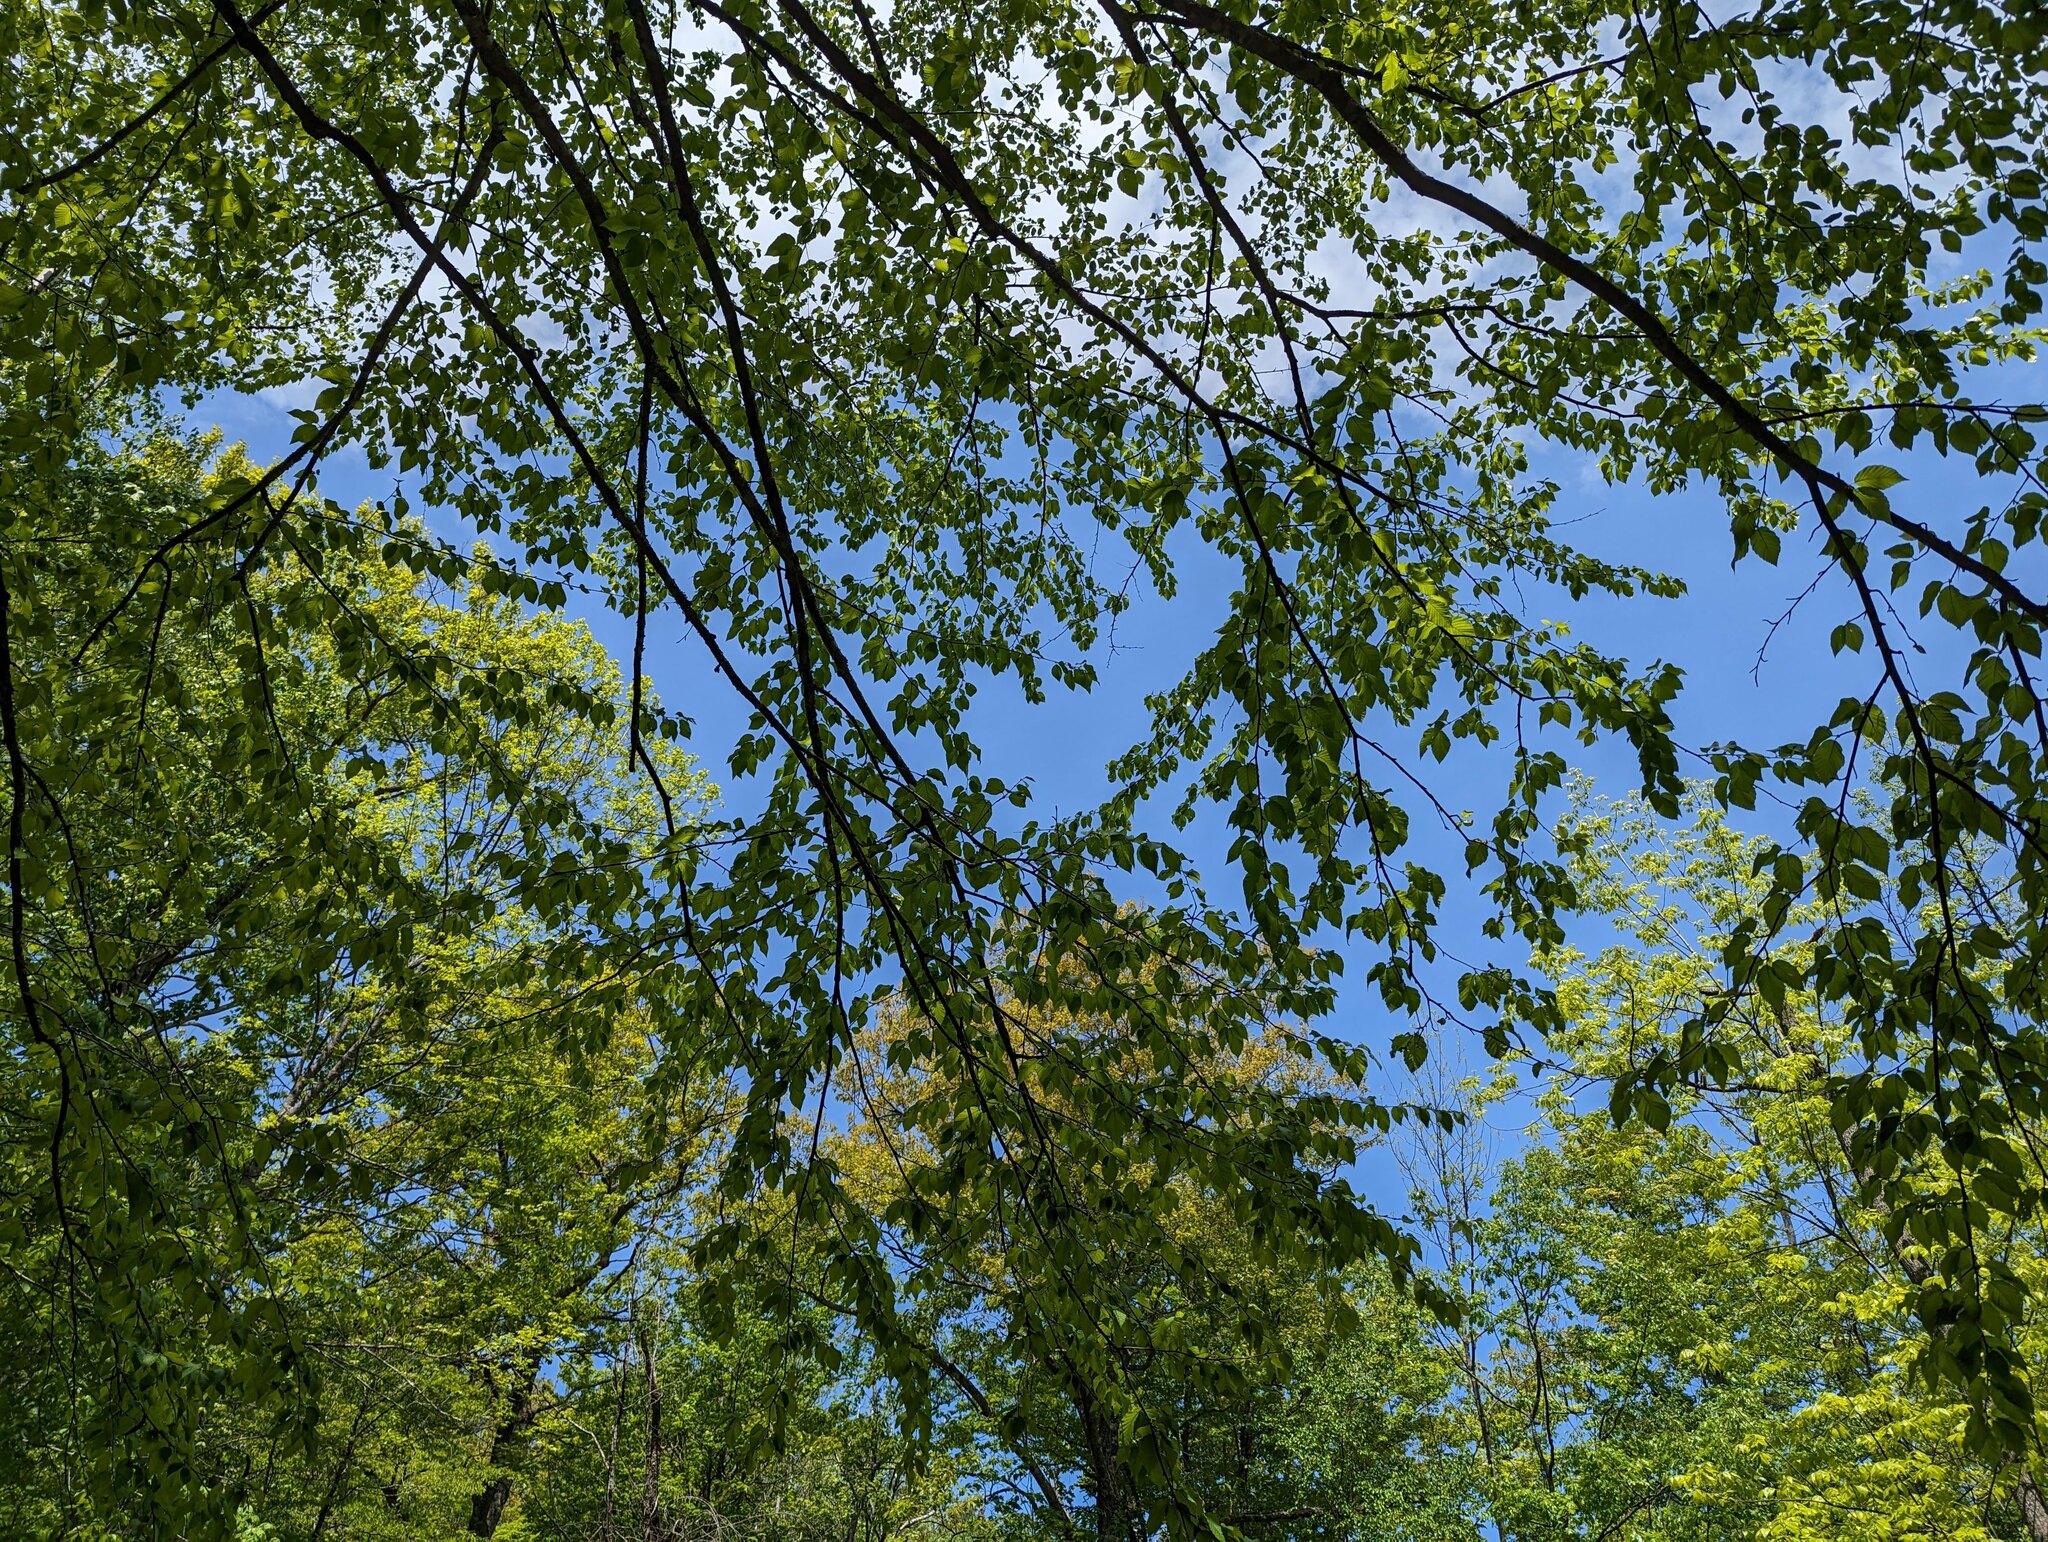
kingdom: Plantae
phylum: Tracheophyta
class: Magnoliopsida
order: Fagales
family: Betulaceae
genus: Betula
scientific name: Betula alleghaniensis
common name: Yellow birch
